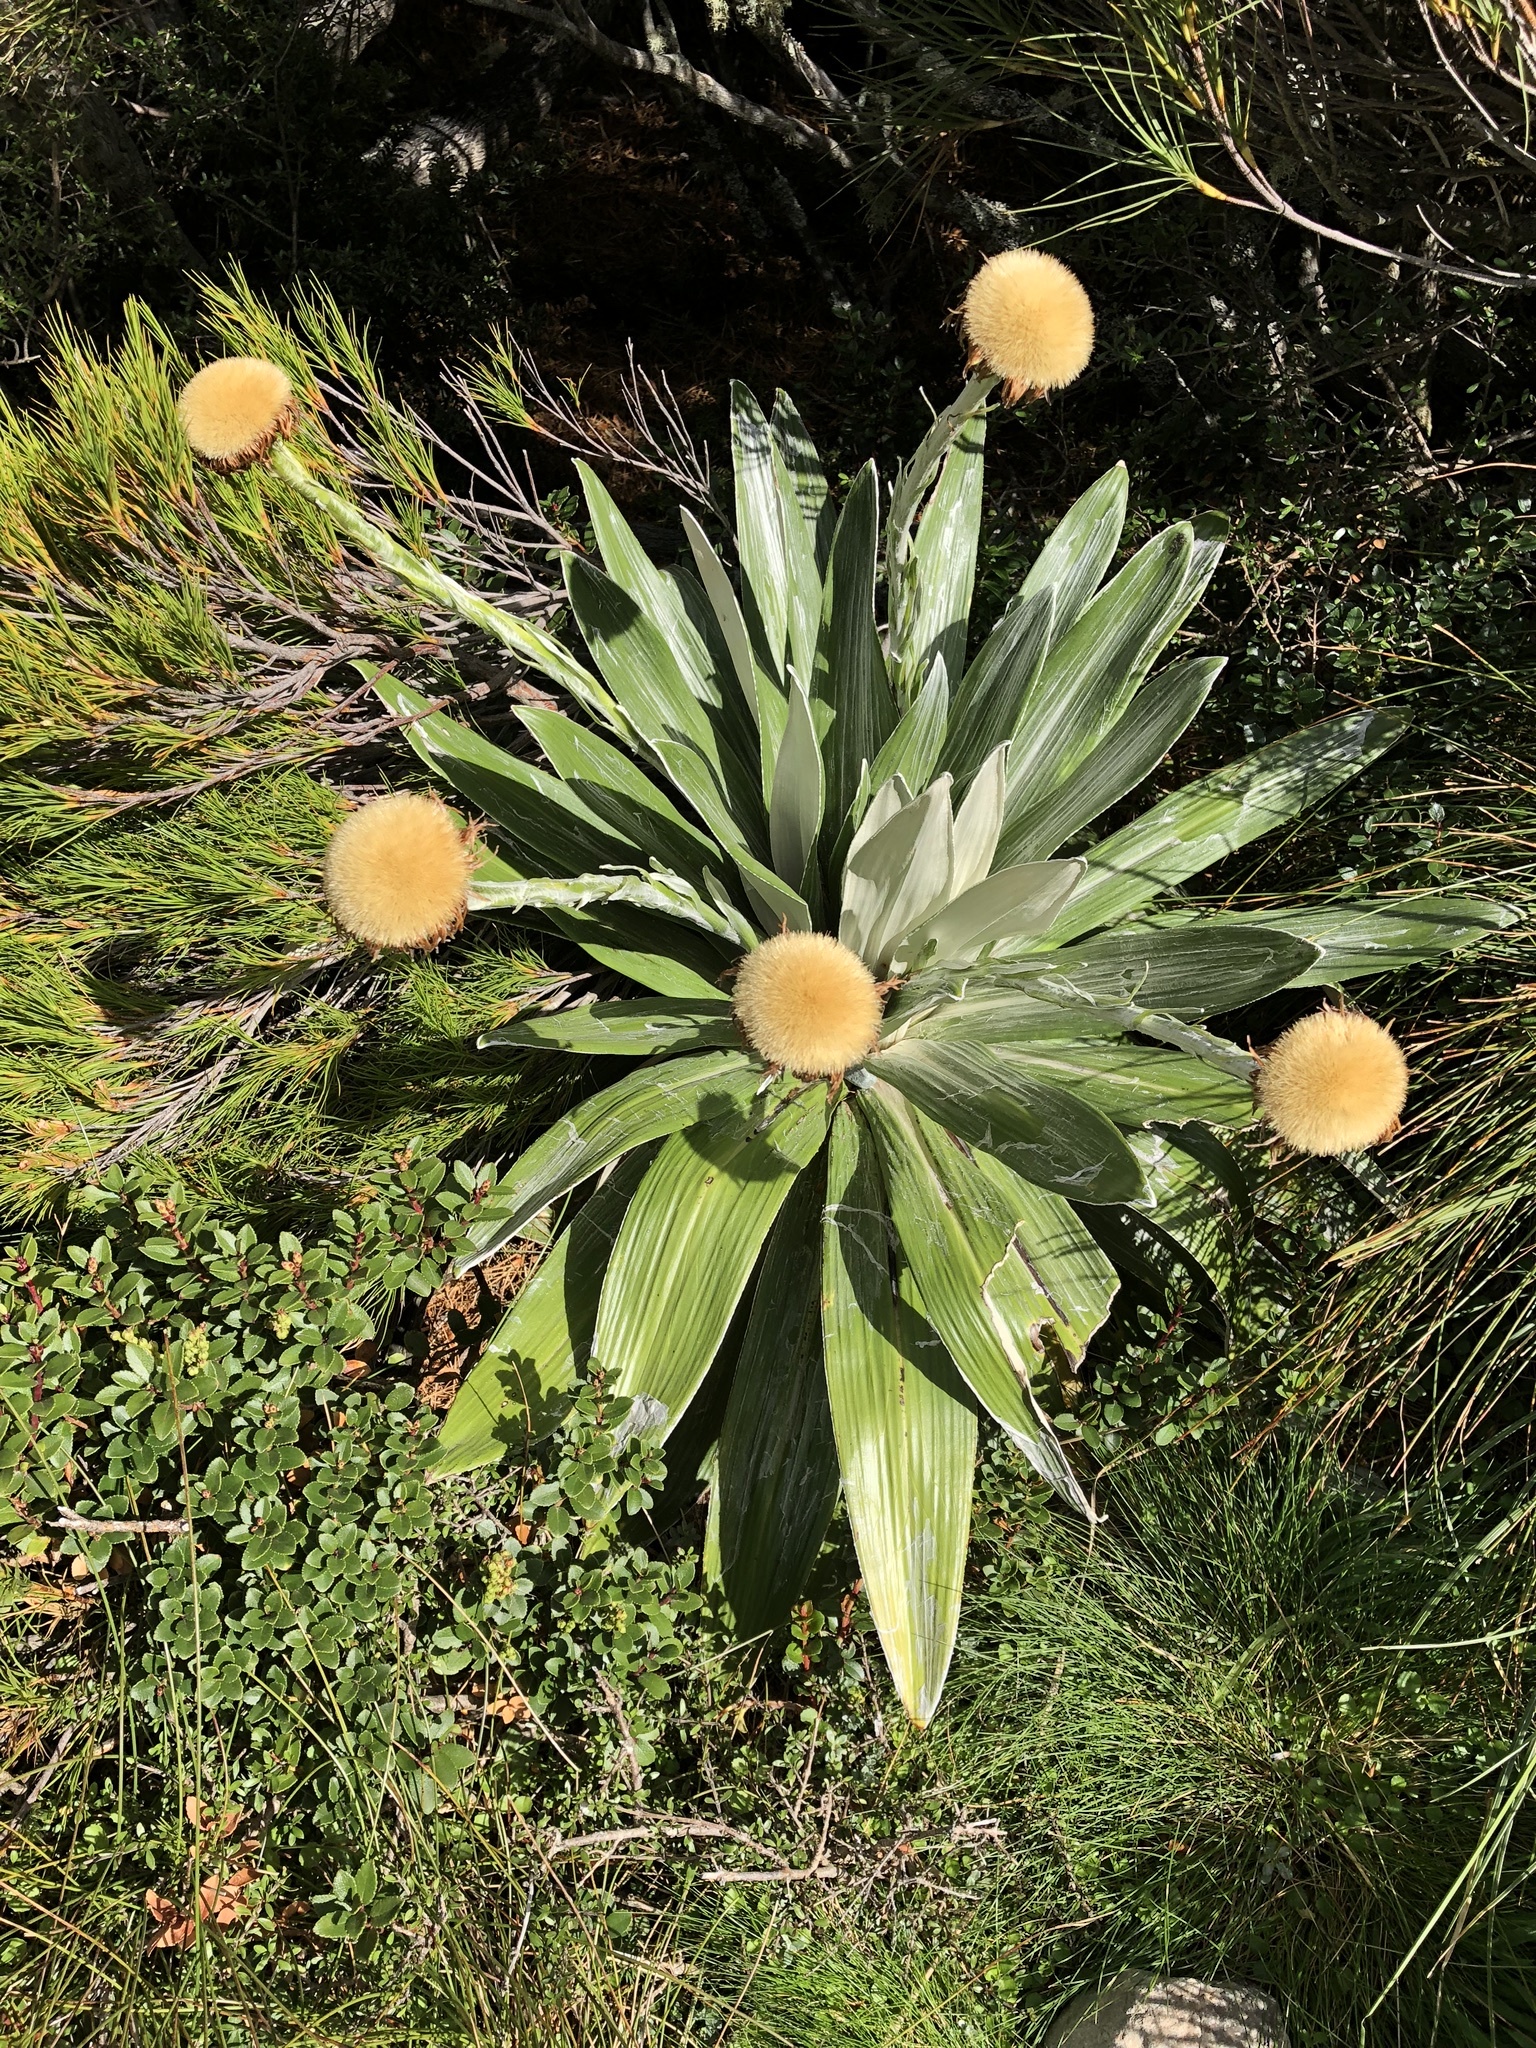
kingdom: Plantae
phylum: Tracheophyta
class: Magnoliopsida
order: Asterales
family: Asteraceae
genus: Celmisia
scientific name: Celmisia semicordata
